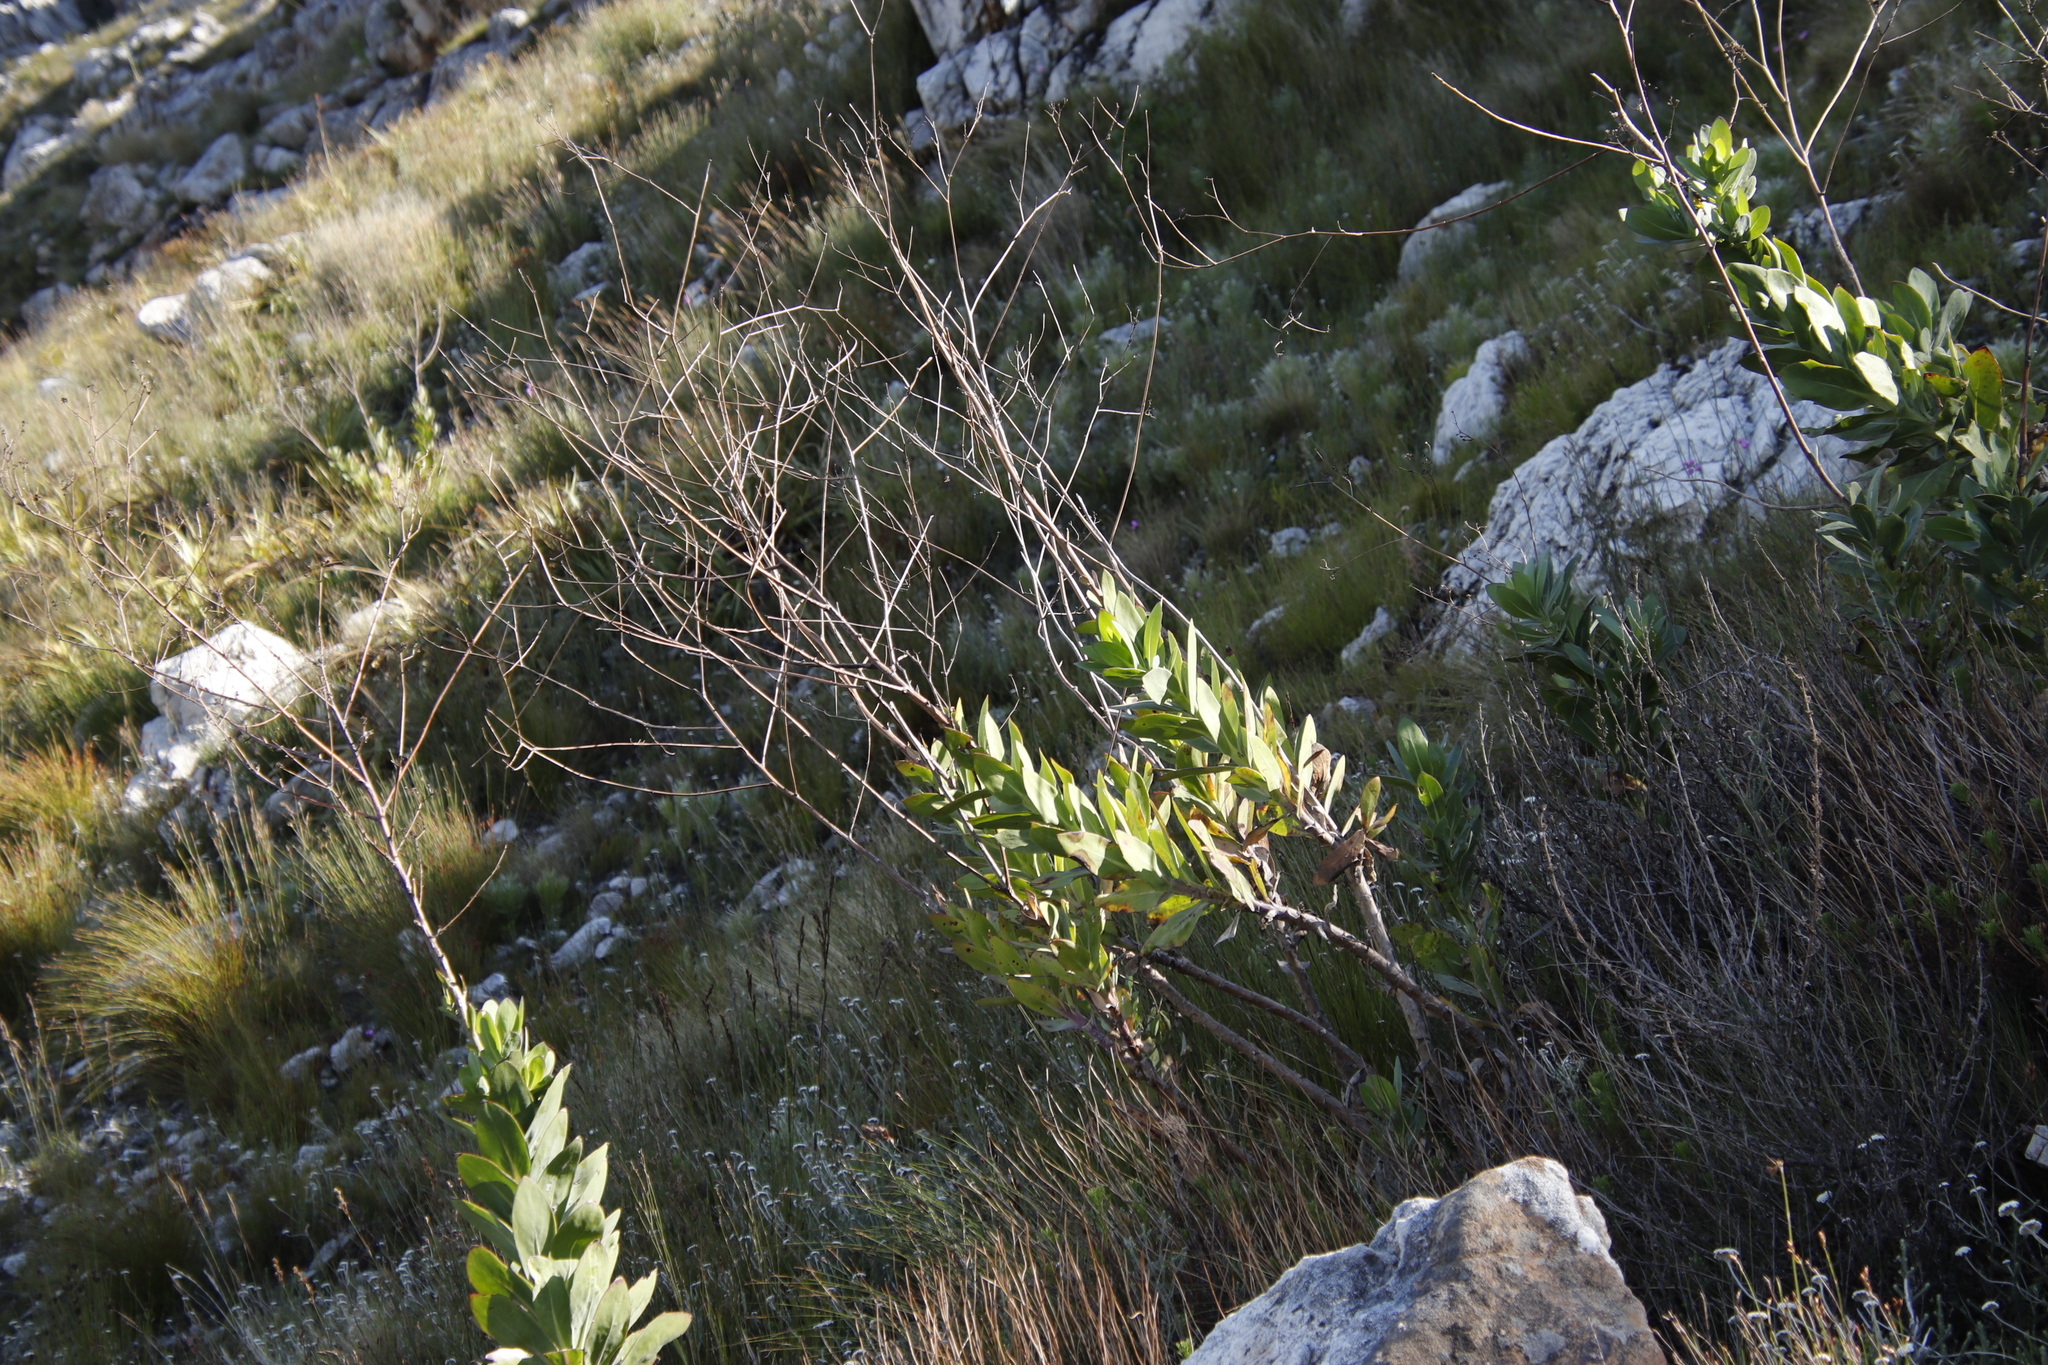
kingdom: Plantae
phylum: Tracheophyta
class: Magnoliopsida
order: Asterales
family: Asteraceae
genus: Othonna
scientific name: Othonna quinquedentata
